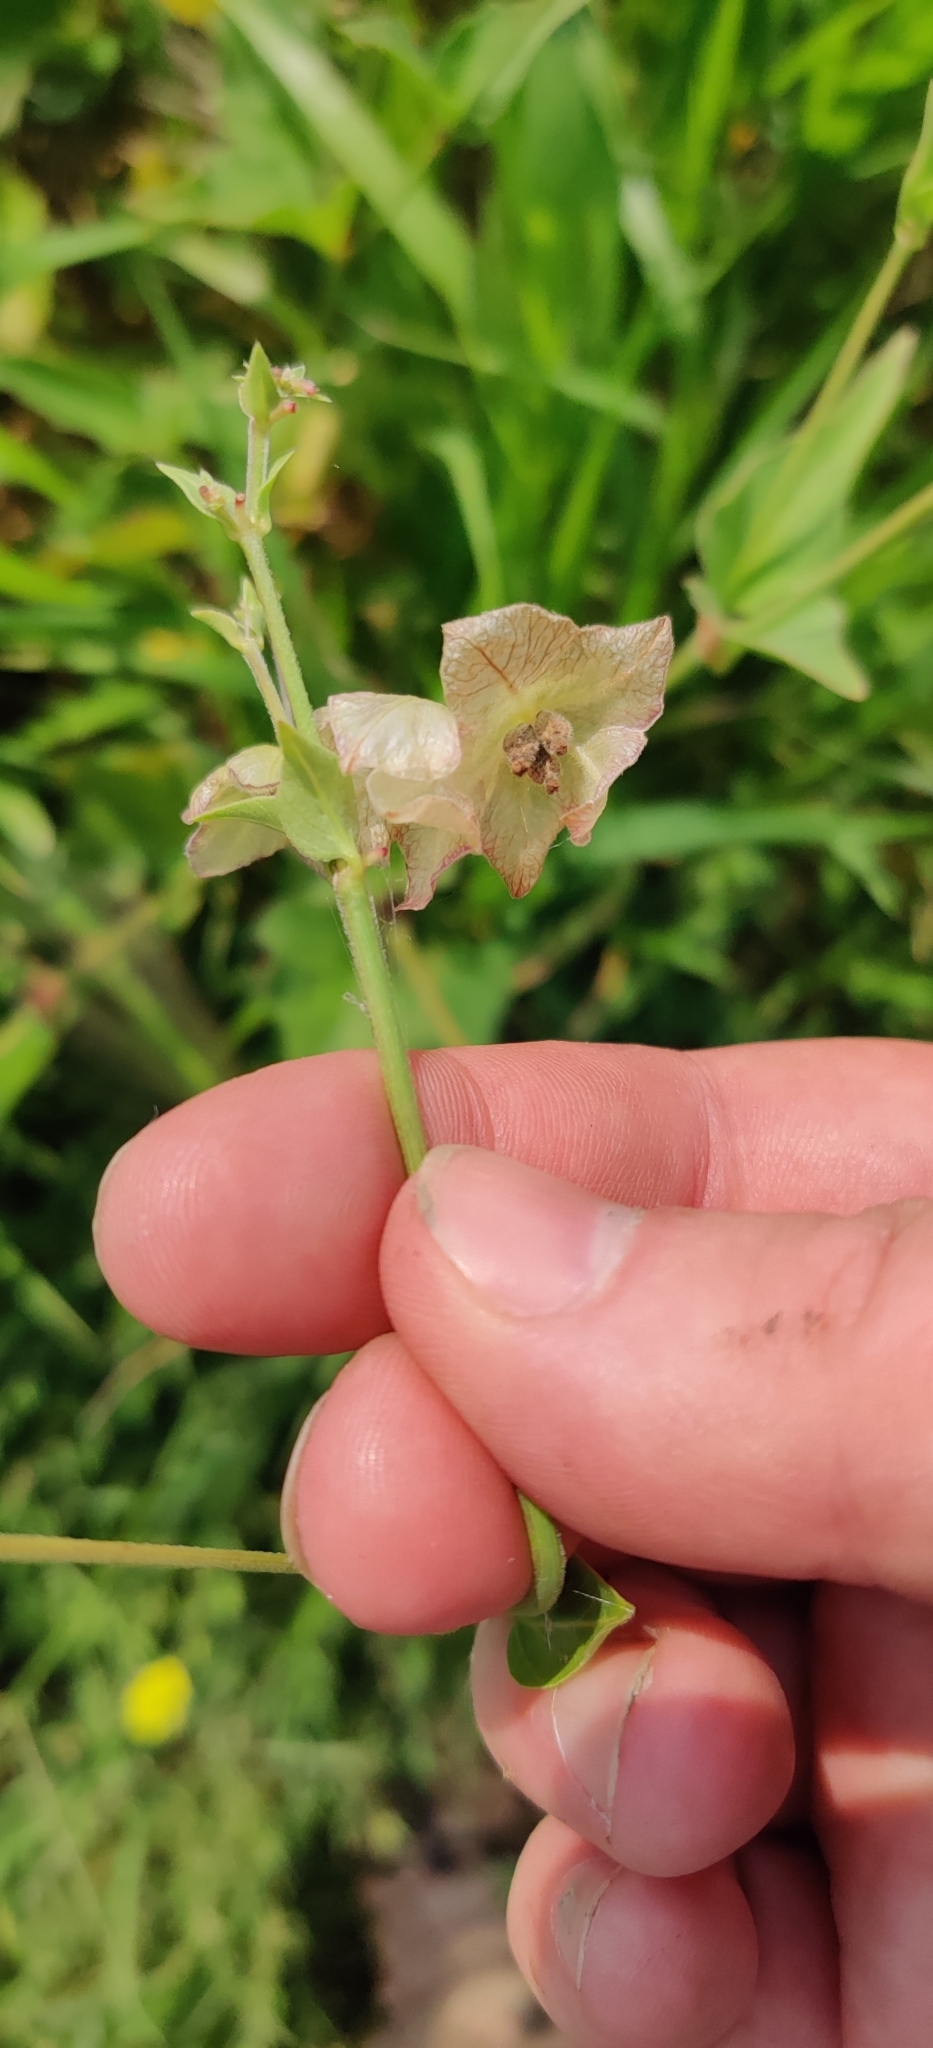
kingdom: Plantae
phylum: Tracheophyta
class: Magnoliopsida
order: Caryophyllales
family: Nyctaginaceae
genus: Mirabilis
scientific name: Mirabilis albida
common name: Hairy four-o'clock
